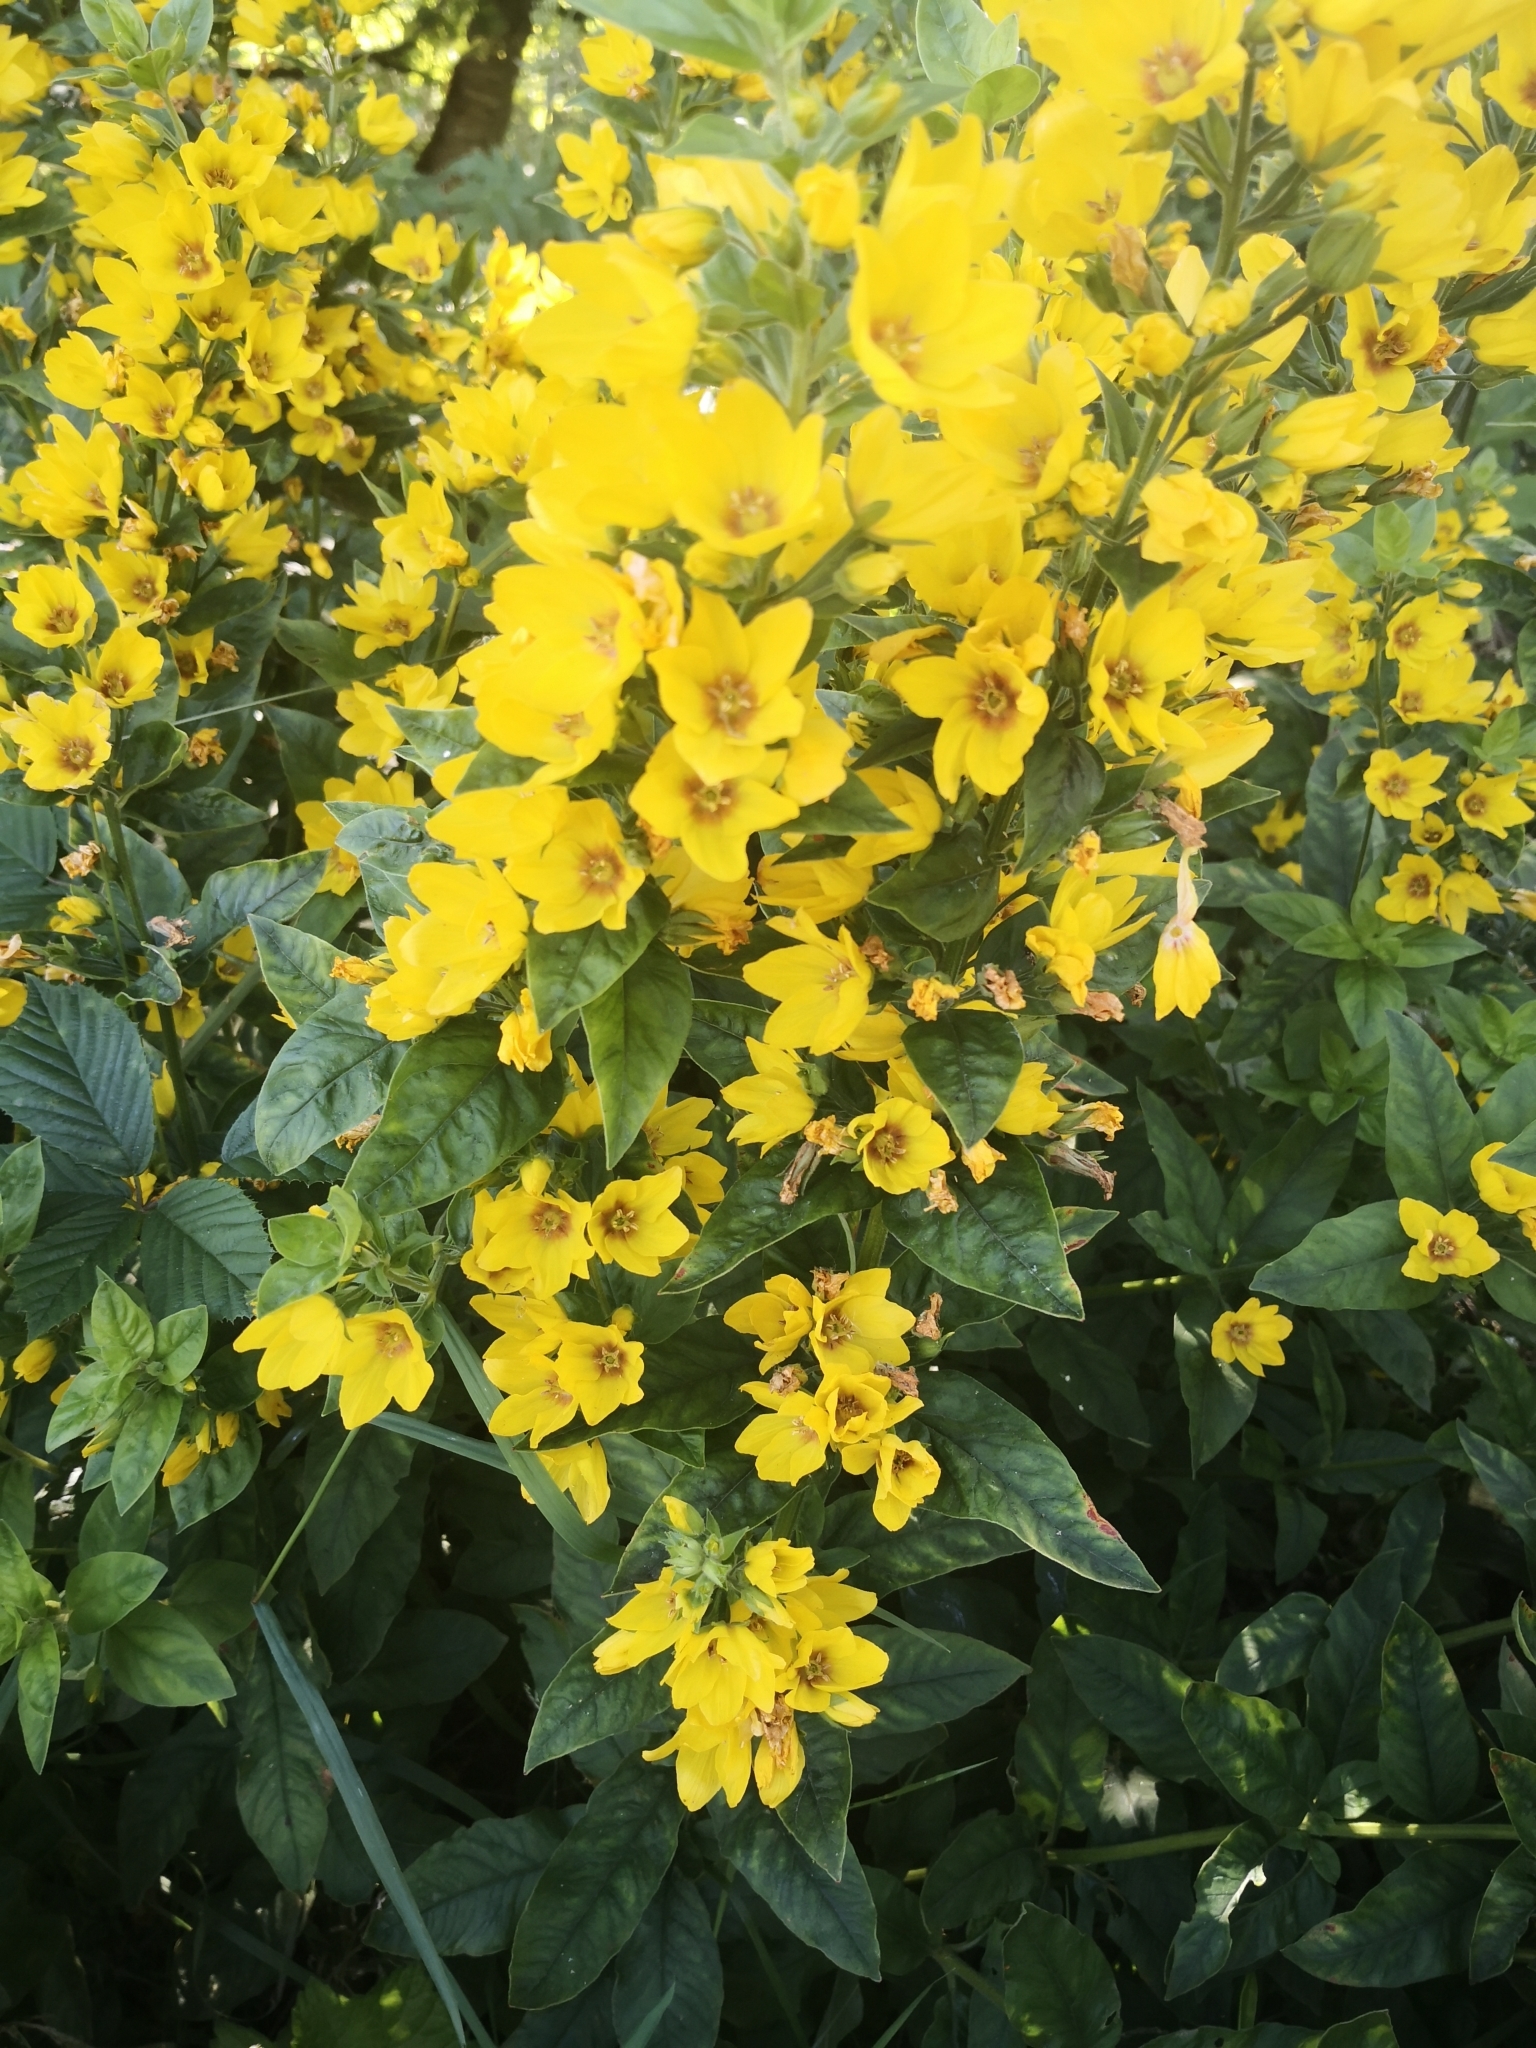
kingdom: Plantae
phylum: Tracheophyta
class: Magnoliopsida
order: Ericales
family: Primulaceae
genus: Lysimachia
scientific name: Lysimachia punctata
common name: Dotted loosestrife
